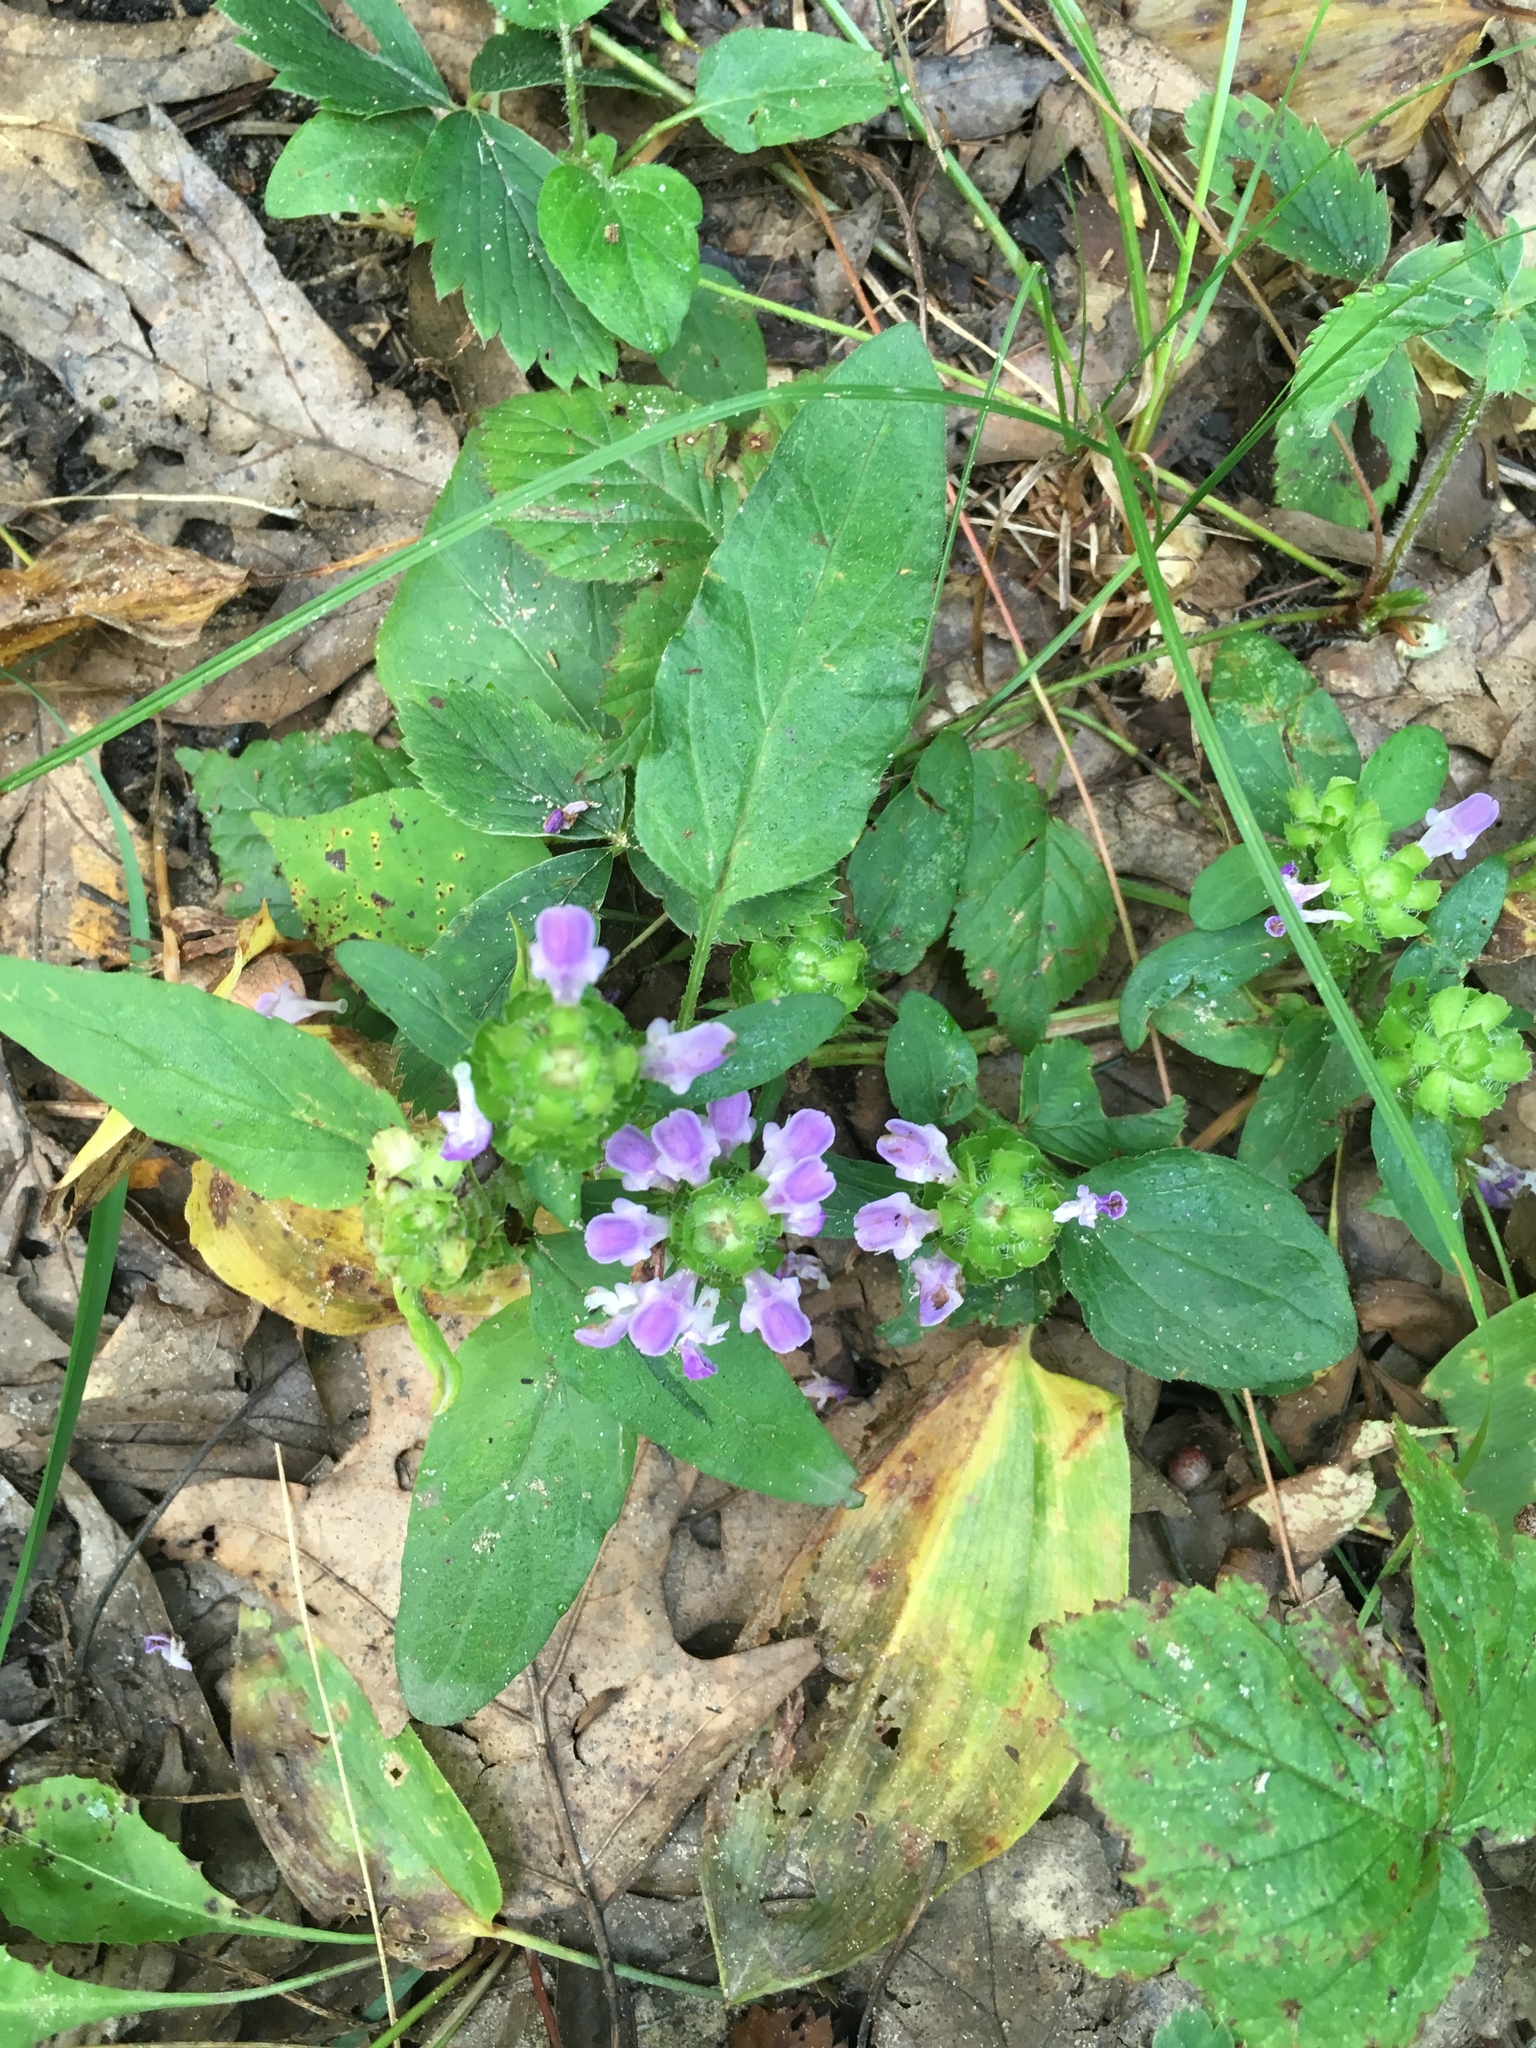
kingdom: Plantae
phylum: Tracheophyta
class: Magnoliopsida
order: Lamiales
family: Lamiaceae
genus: Prunella
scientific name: Prunella vulgaris
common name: Heal-all
